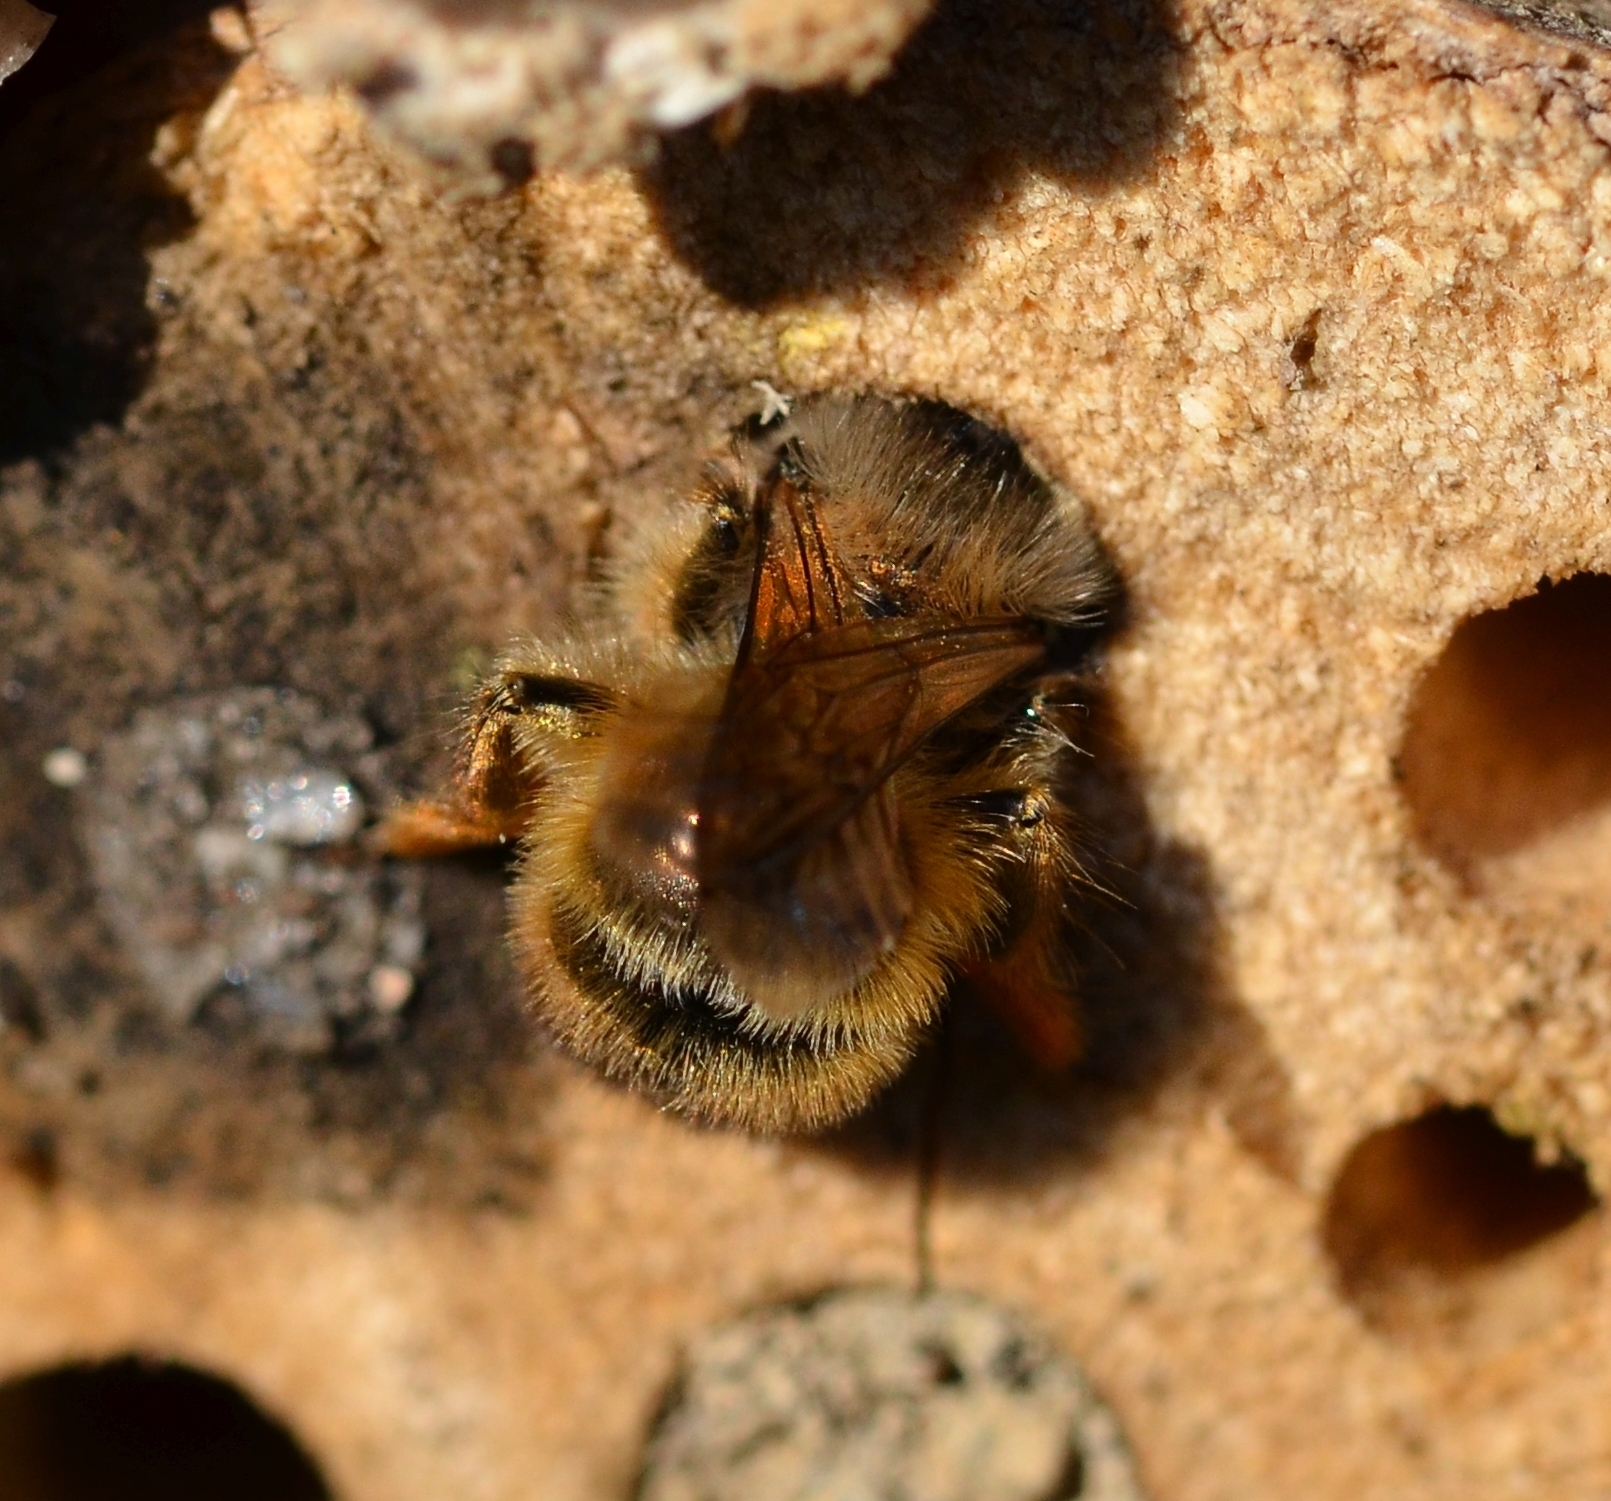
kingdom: Animalia
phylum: Arthropoda
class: Insecta
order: Hymenoptera
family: Megachilidae
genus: Osmia
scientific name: Osmia bicornis
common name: Red mason bee
